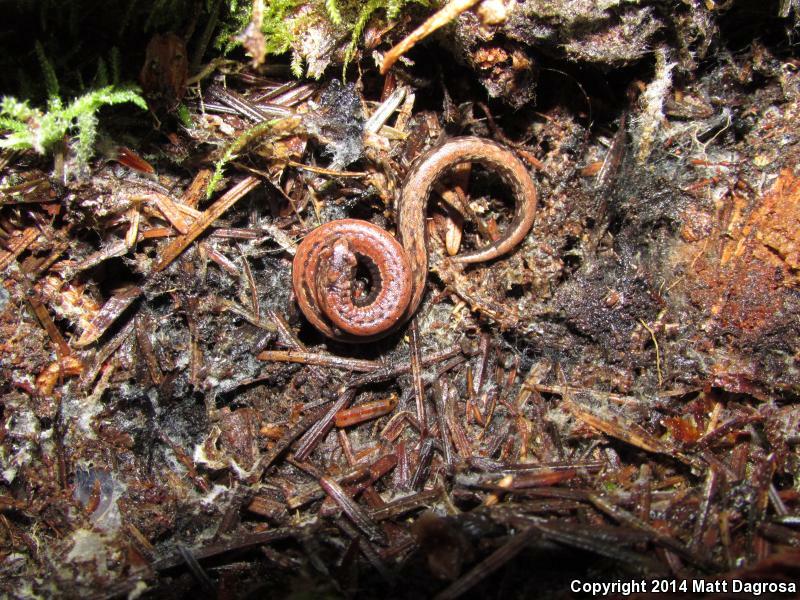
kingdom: Animalia
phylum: Chordata
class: Amphibia
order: Caudata
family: Plethodontidae
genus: Batrachoseps
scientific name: Batrachoseps attenuatus
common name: California slender salamander
